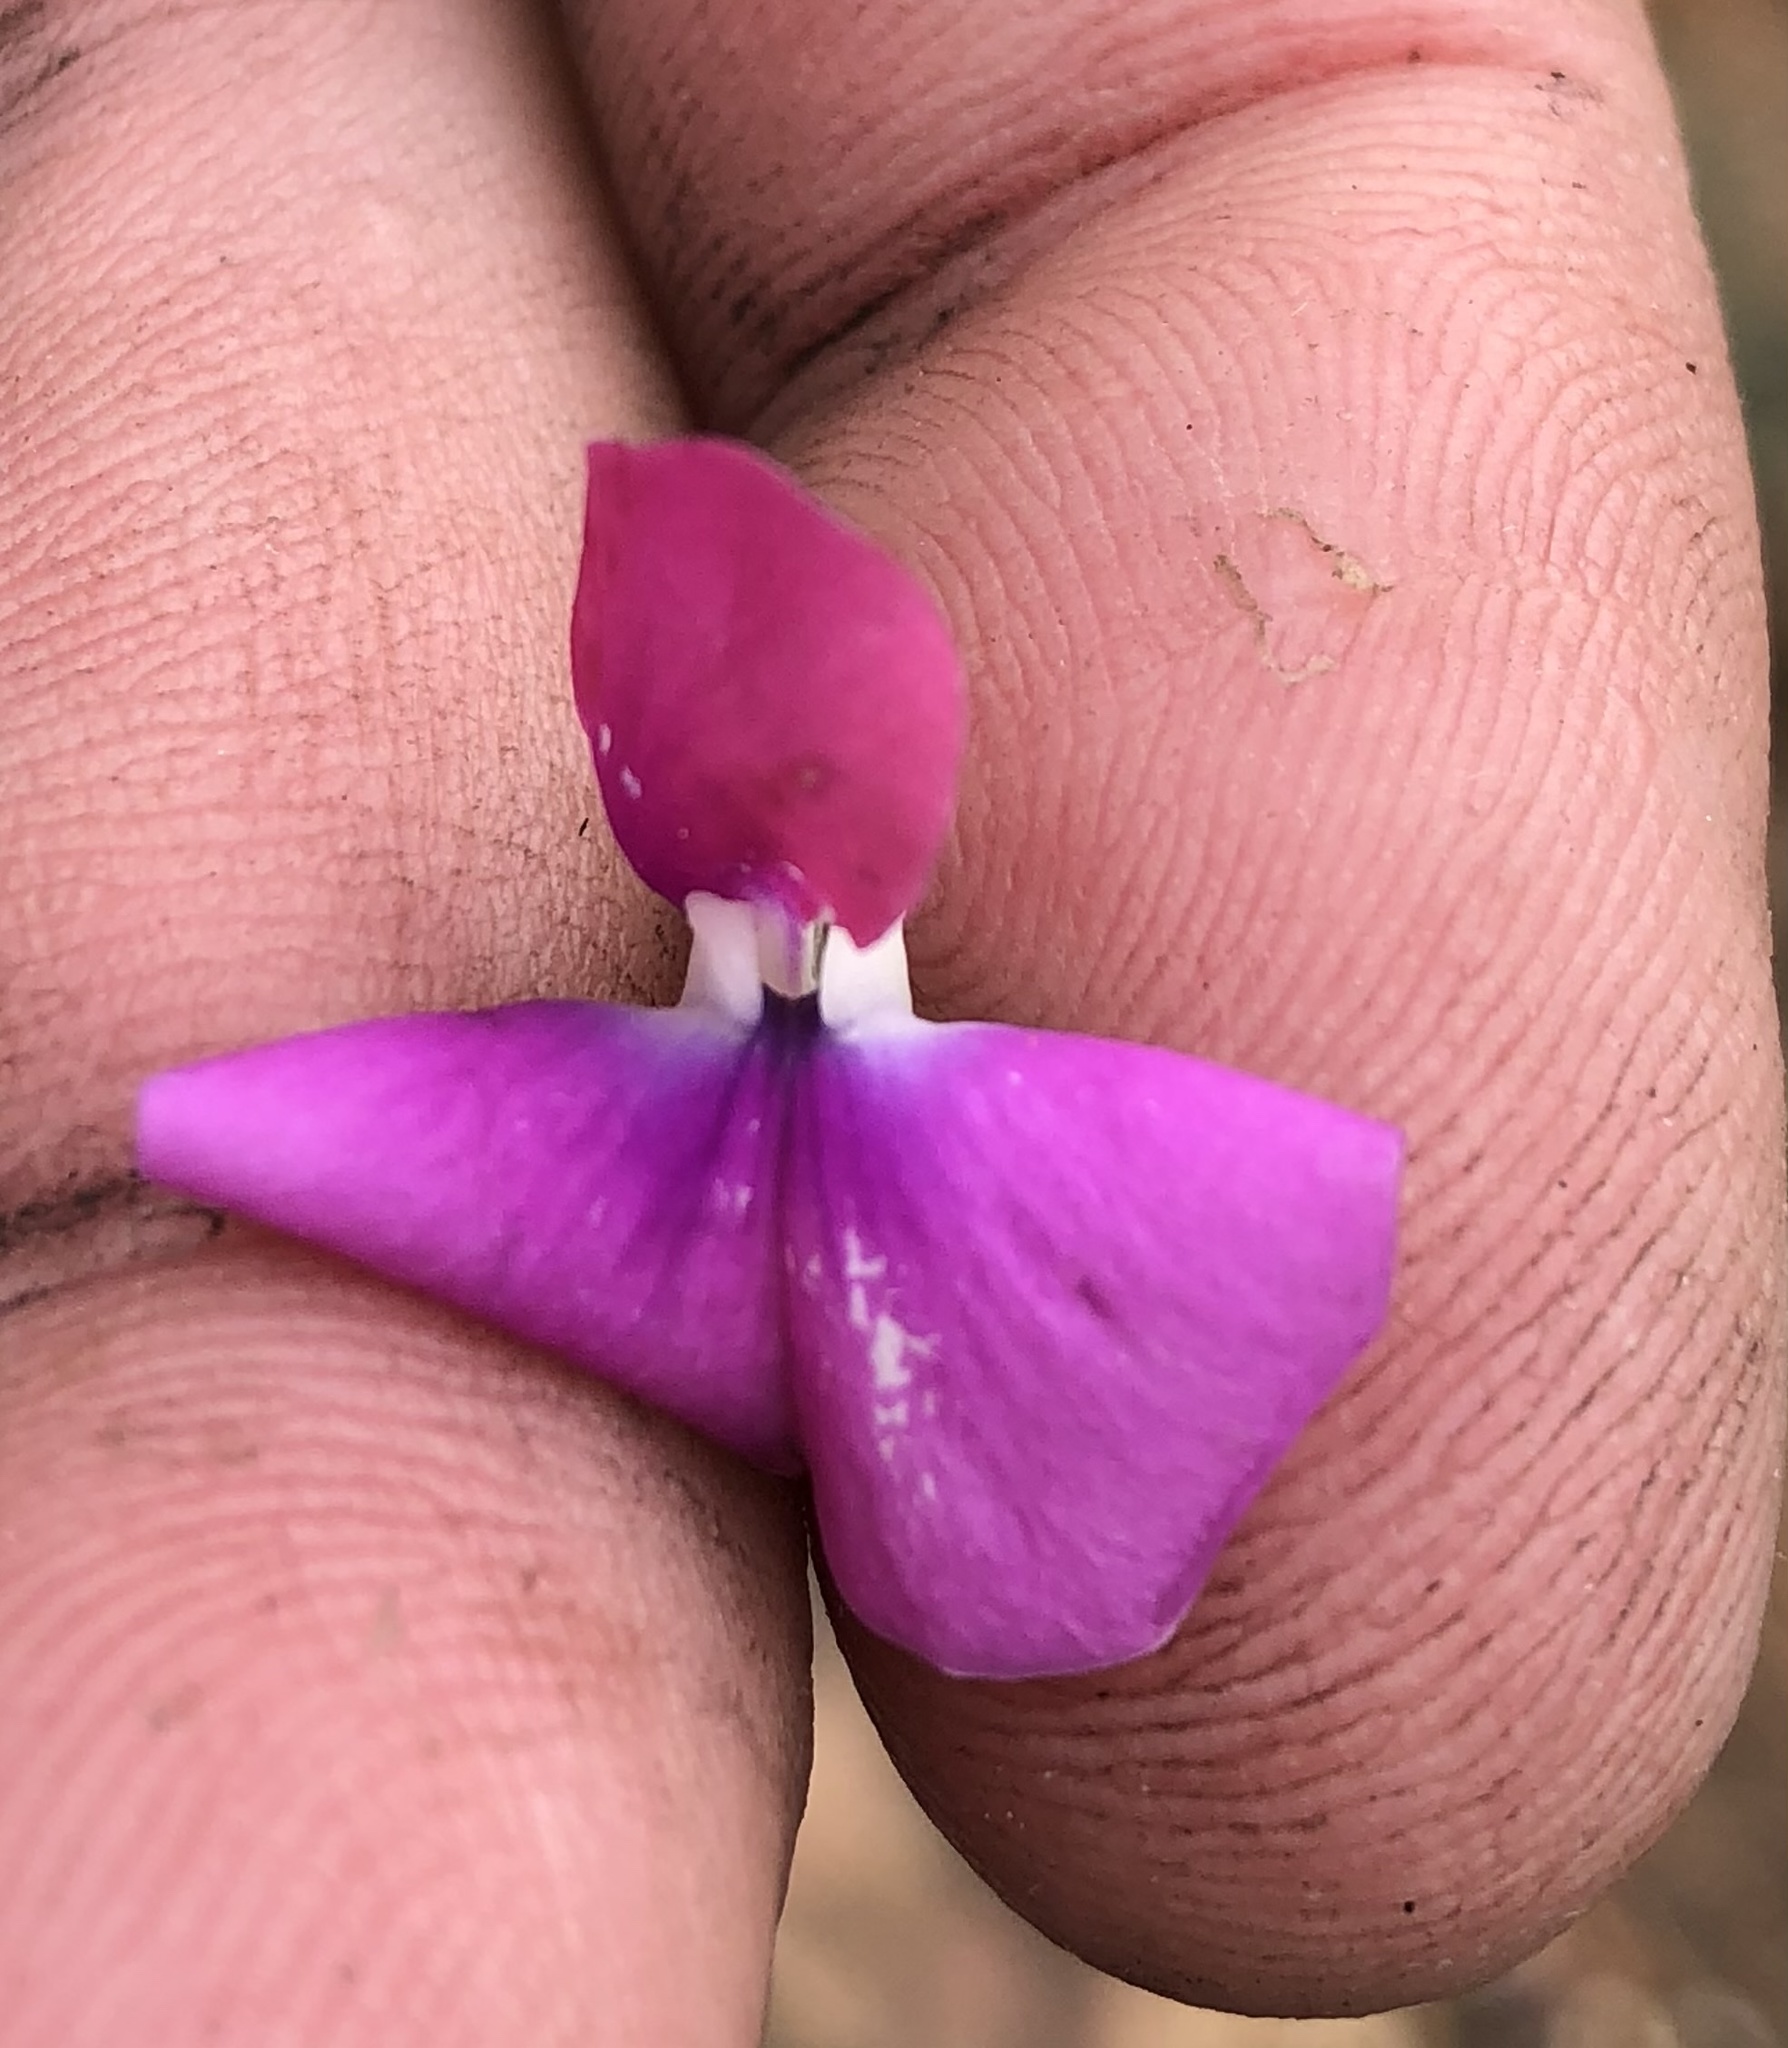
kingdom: Plantae
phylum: Tracheophyta
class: Magnoliopsida
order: Fabales
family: Fabaceae
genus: Dipogon
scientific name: Dipogon lignosus
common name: Okie bean
